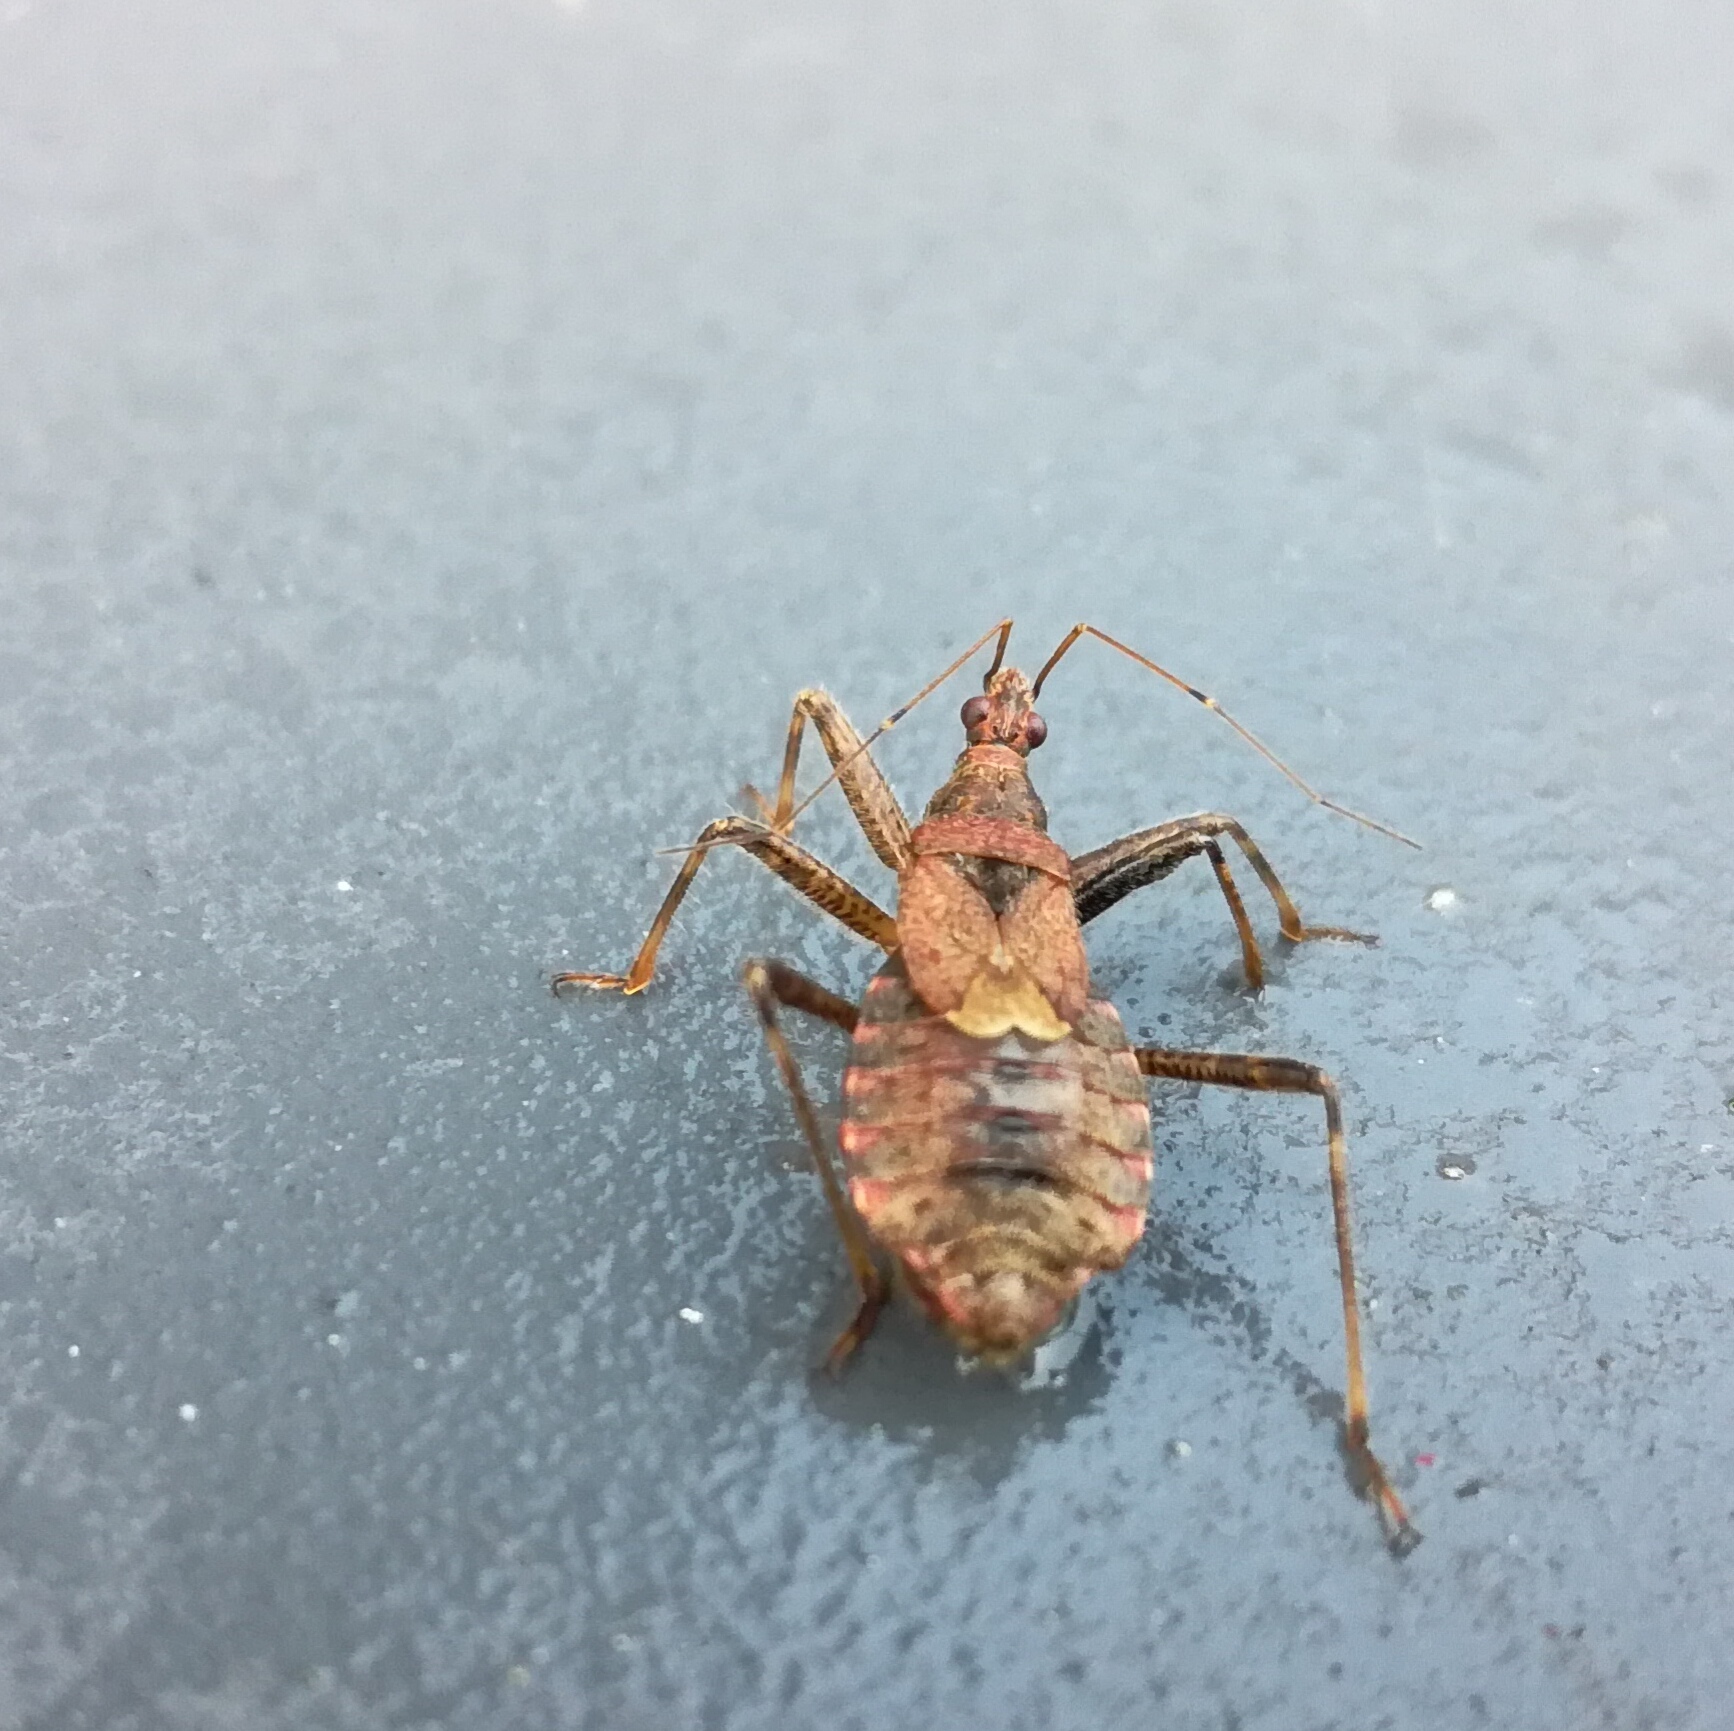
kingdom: Animalia
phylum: Arthropoda
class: Insecta
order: Hemiptera
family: Nabidae
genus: Himacerus
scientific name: Himacerus apterus
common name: Tree damsel bug
